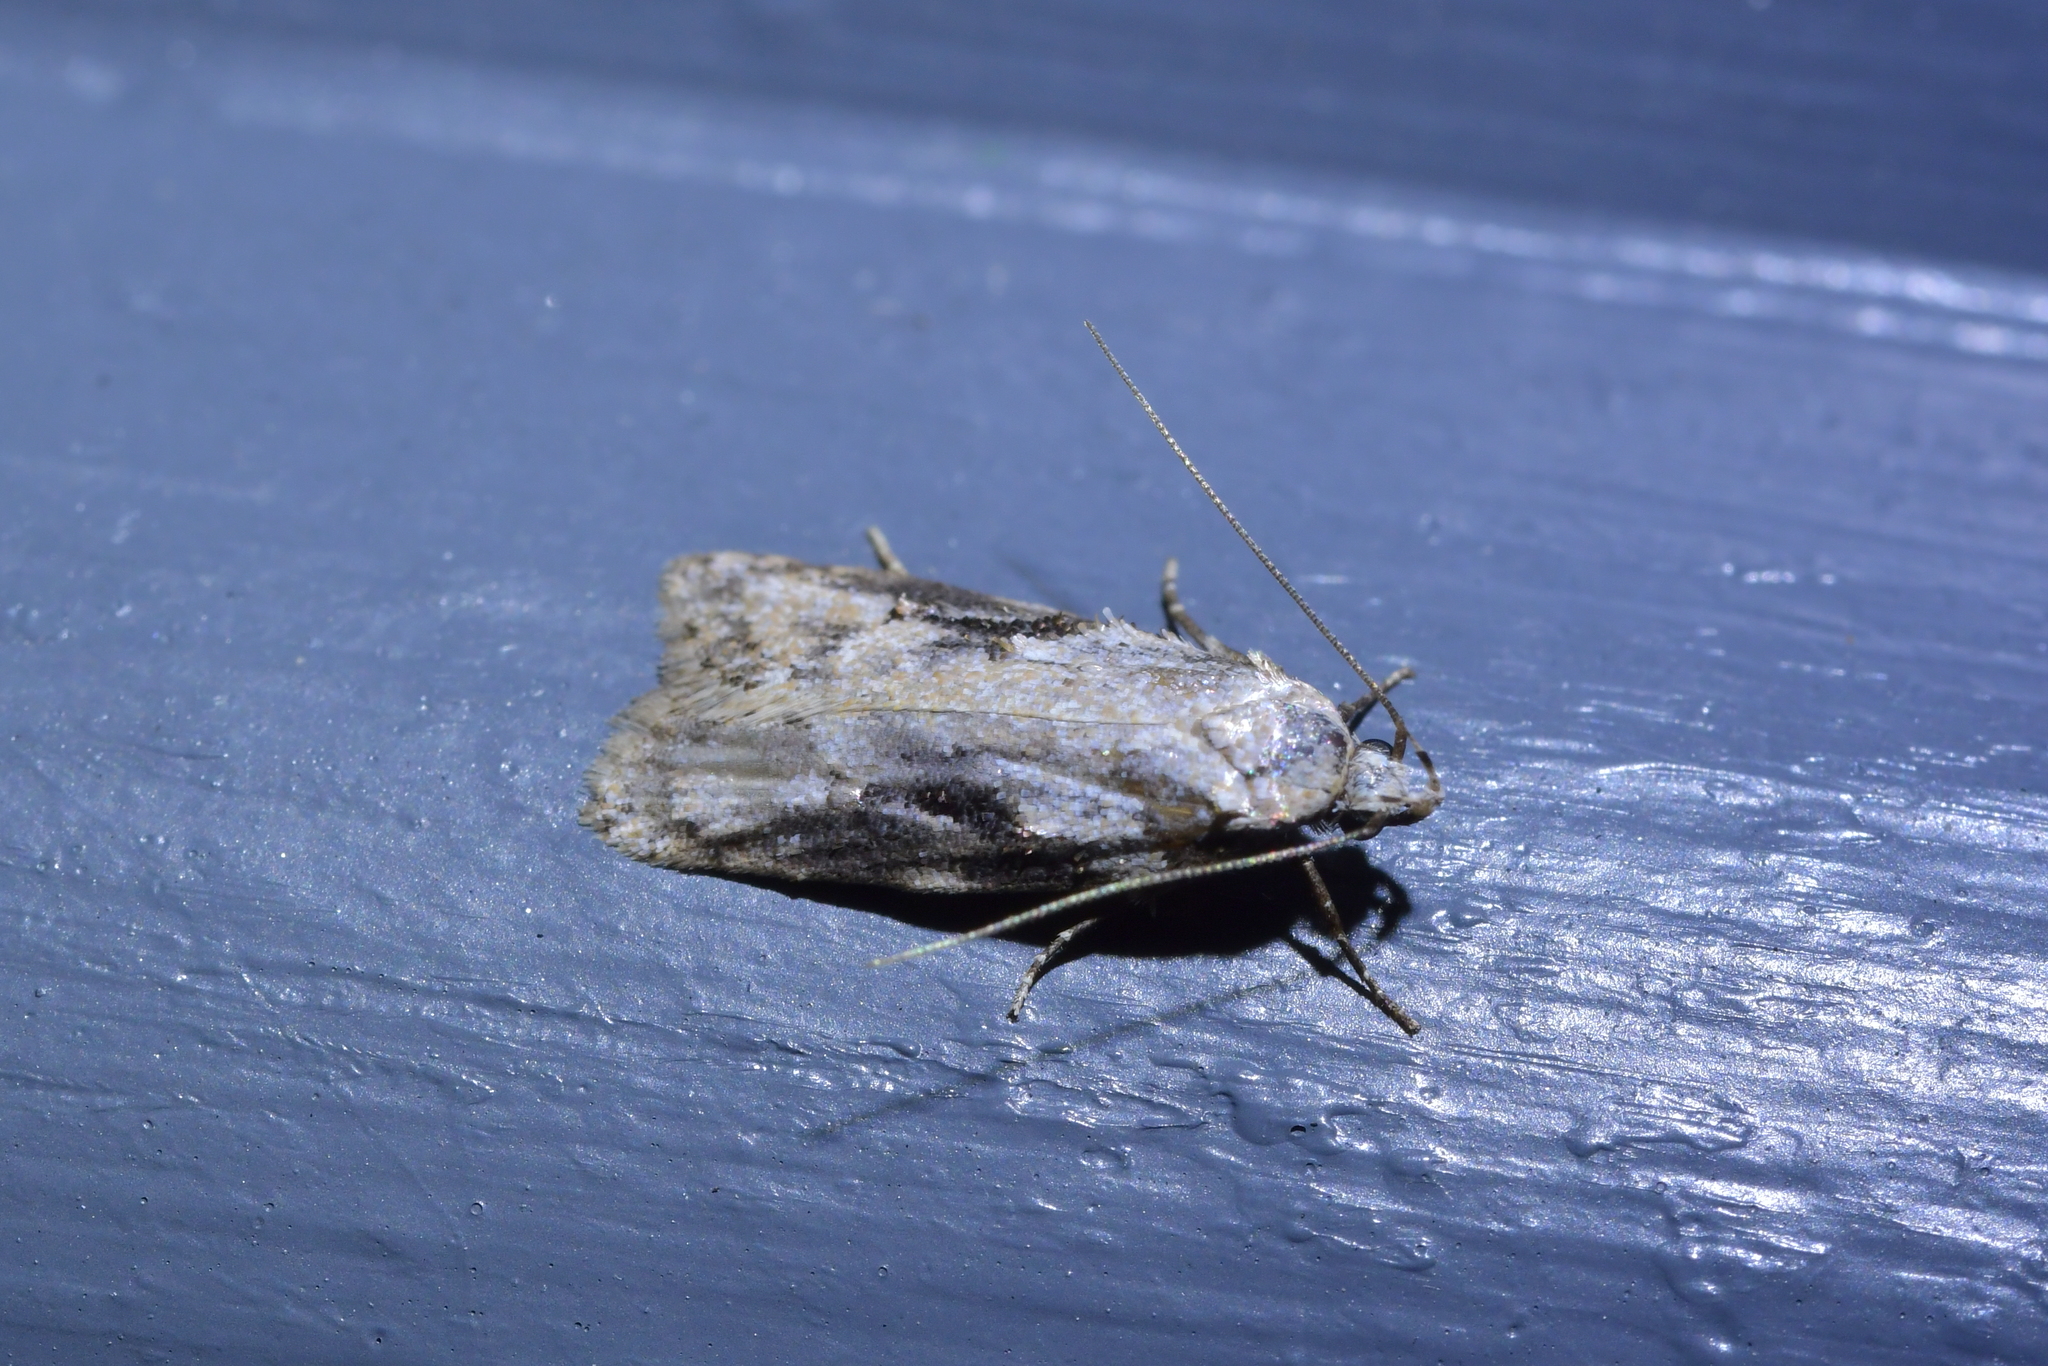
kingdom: Animalia
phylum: Arthropoda
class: Insecta
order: Lepidoptera
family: Oecophoridae
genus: Izatha
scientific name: Izatha mesoschista
